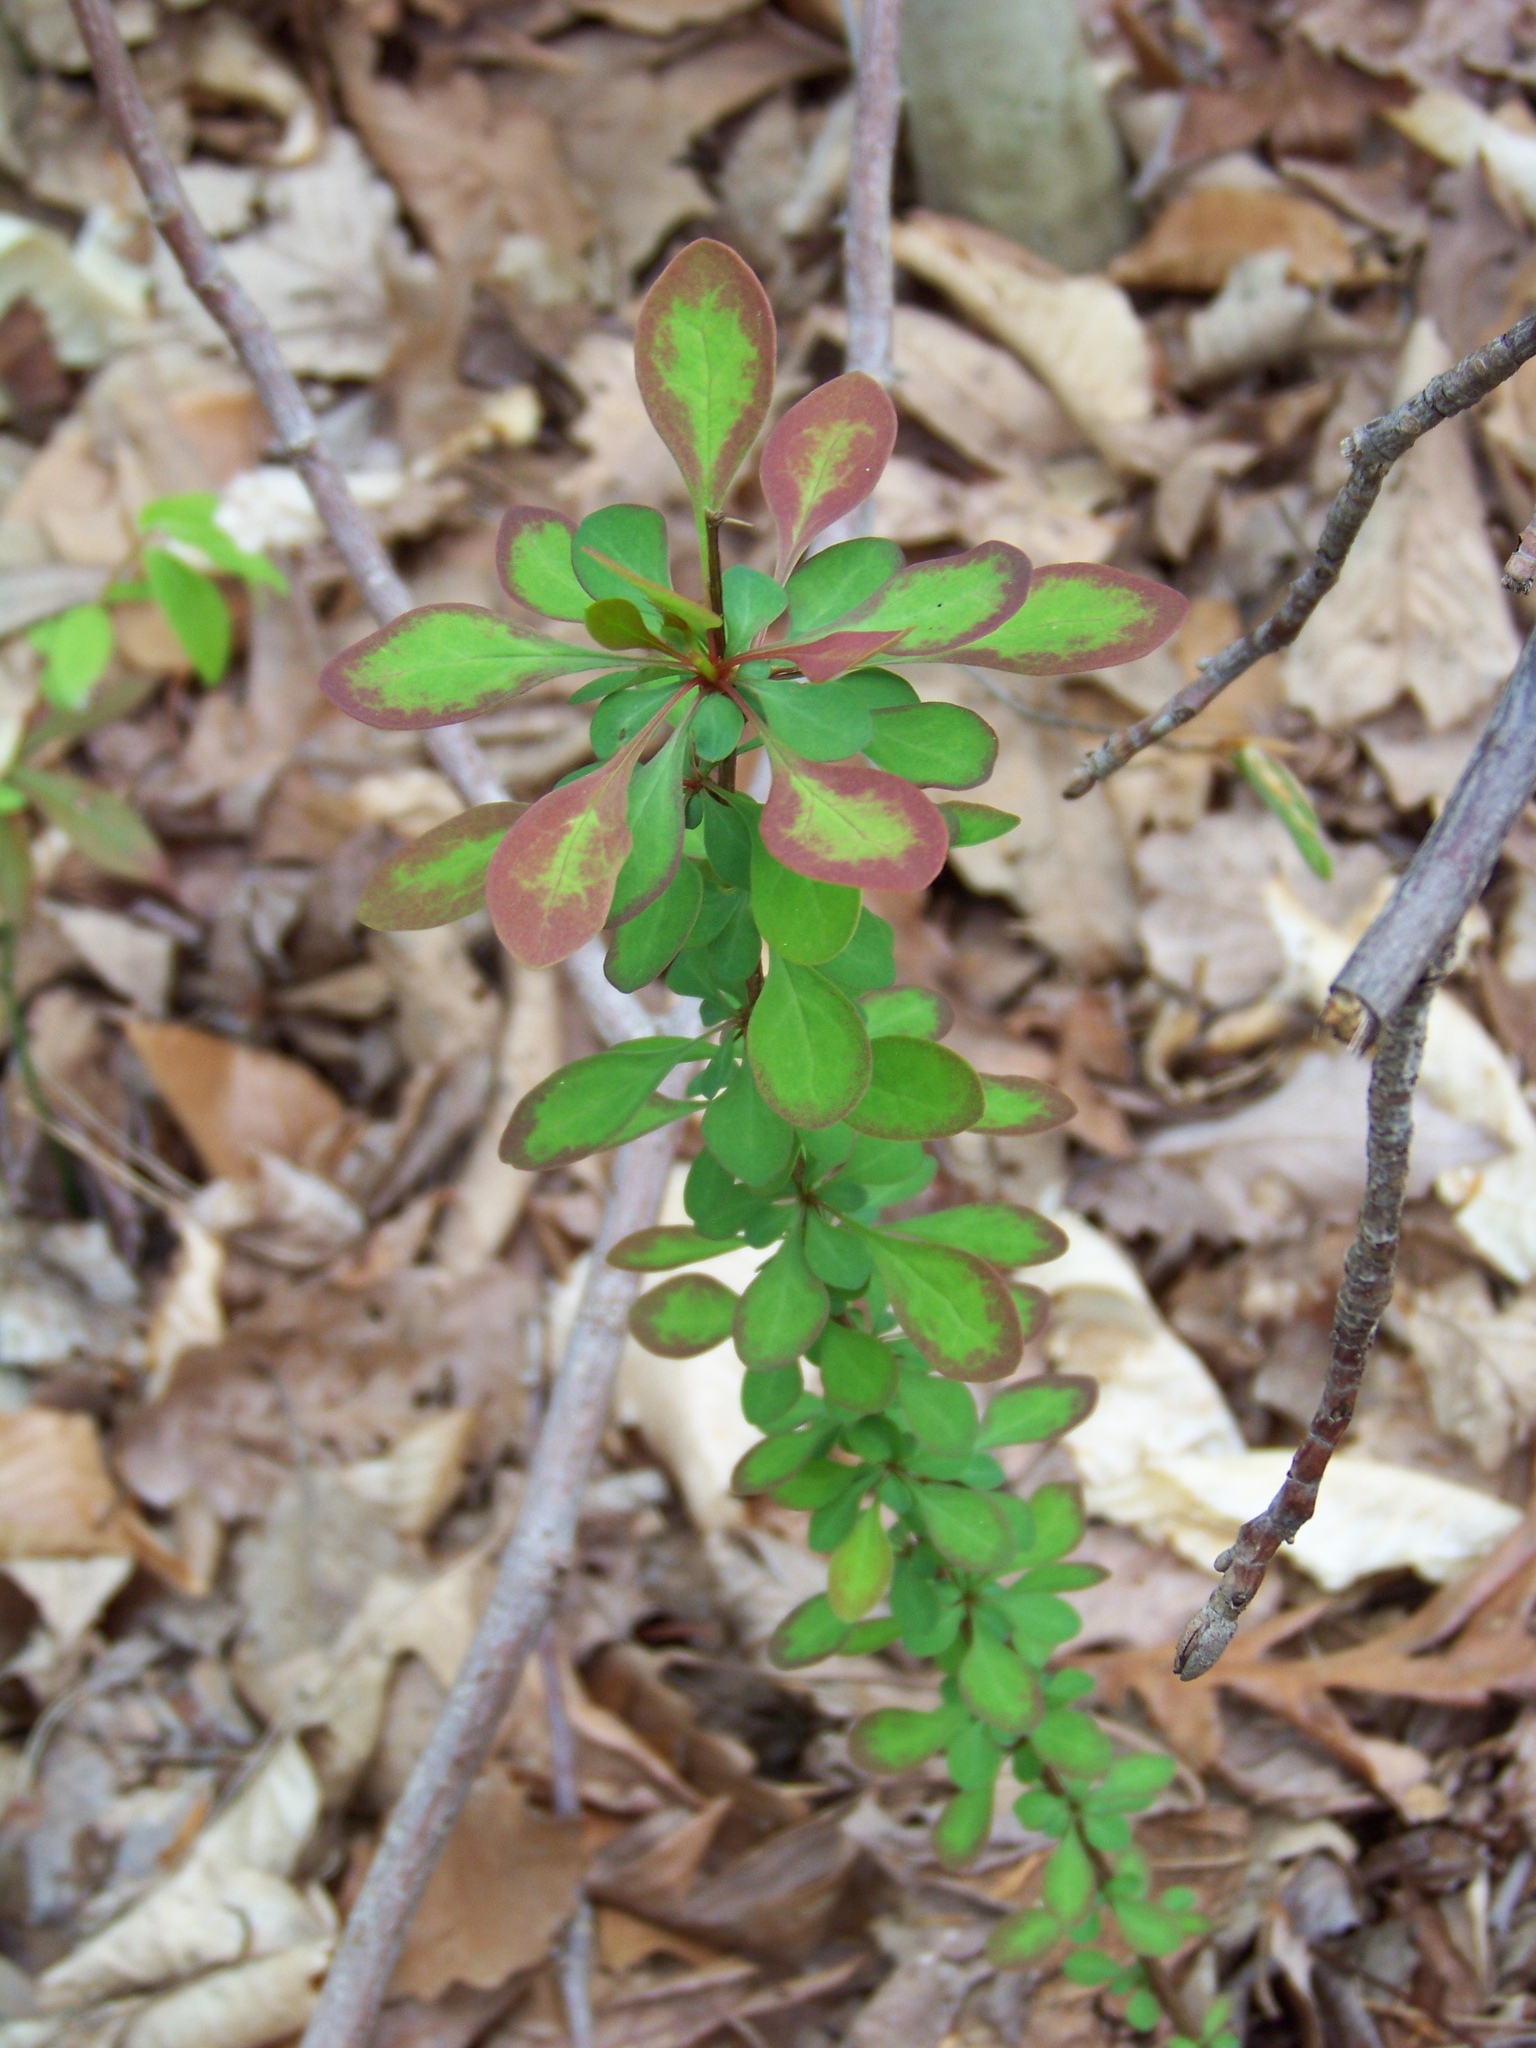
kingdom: Plantae
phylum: Tracheophyta
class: Magnoliopsida
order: Ranunculales
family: Berberidaceae
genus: Berberis
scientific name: Berberis thunbergii
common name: Japanese barberry
